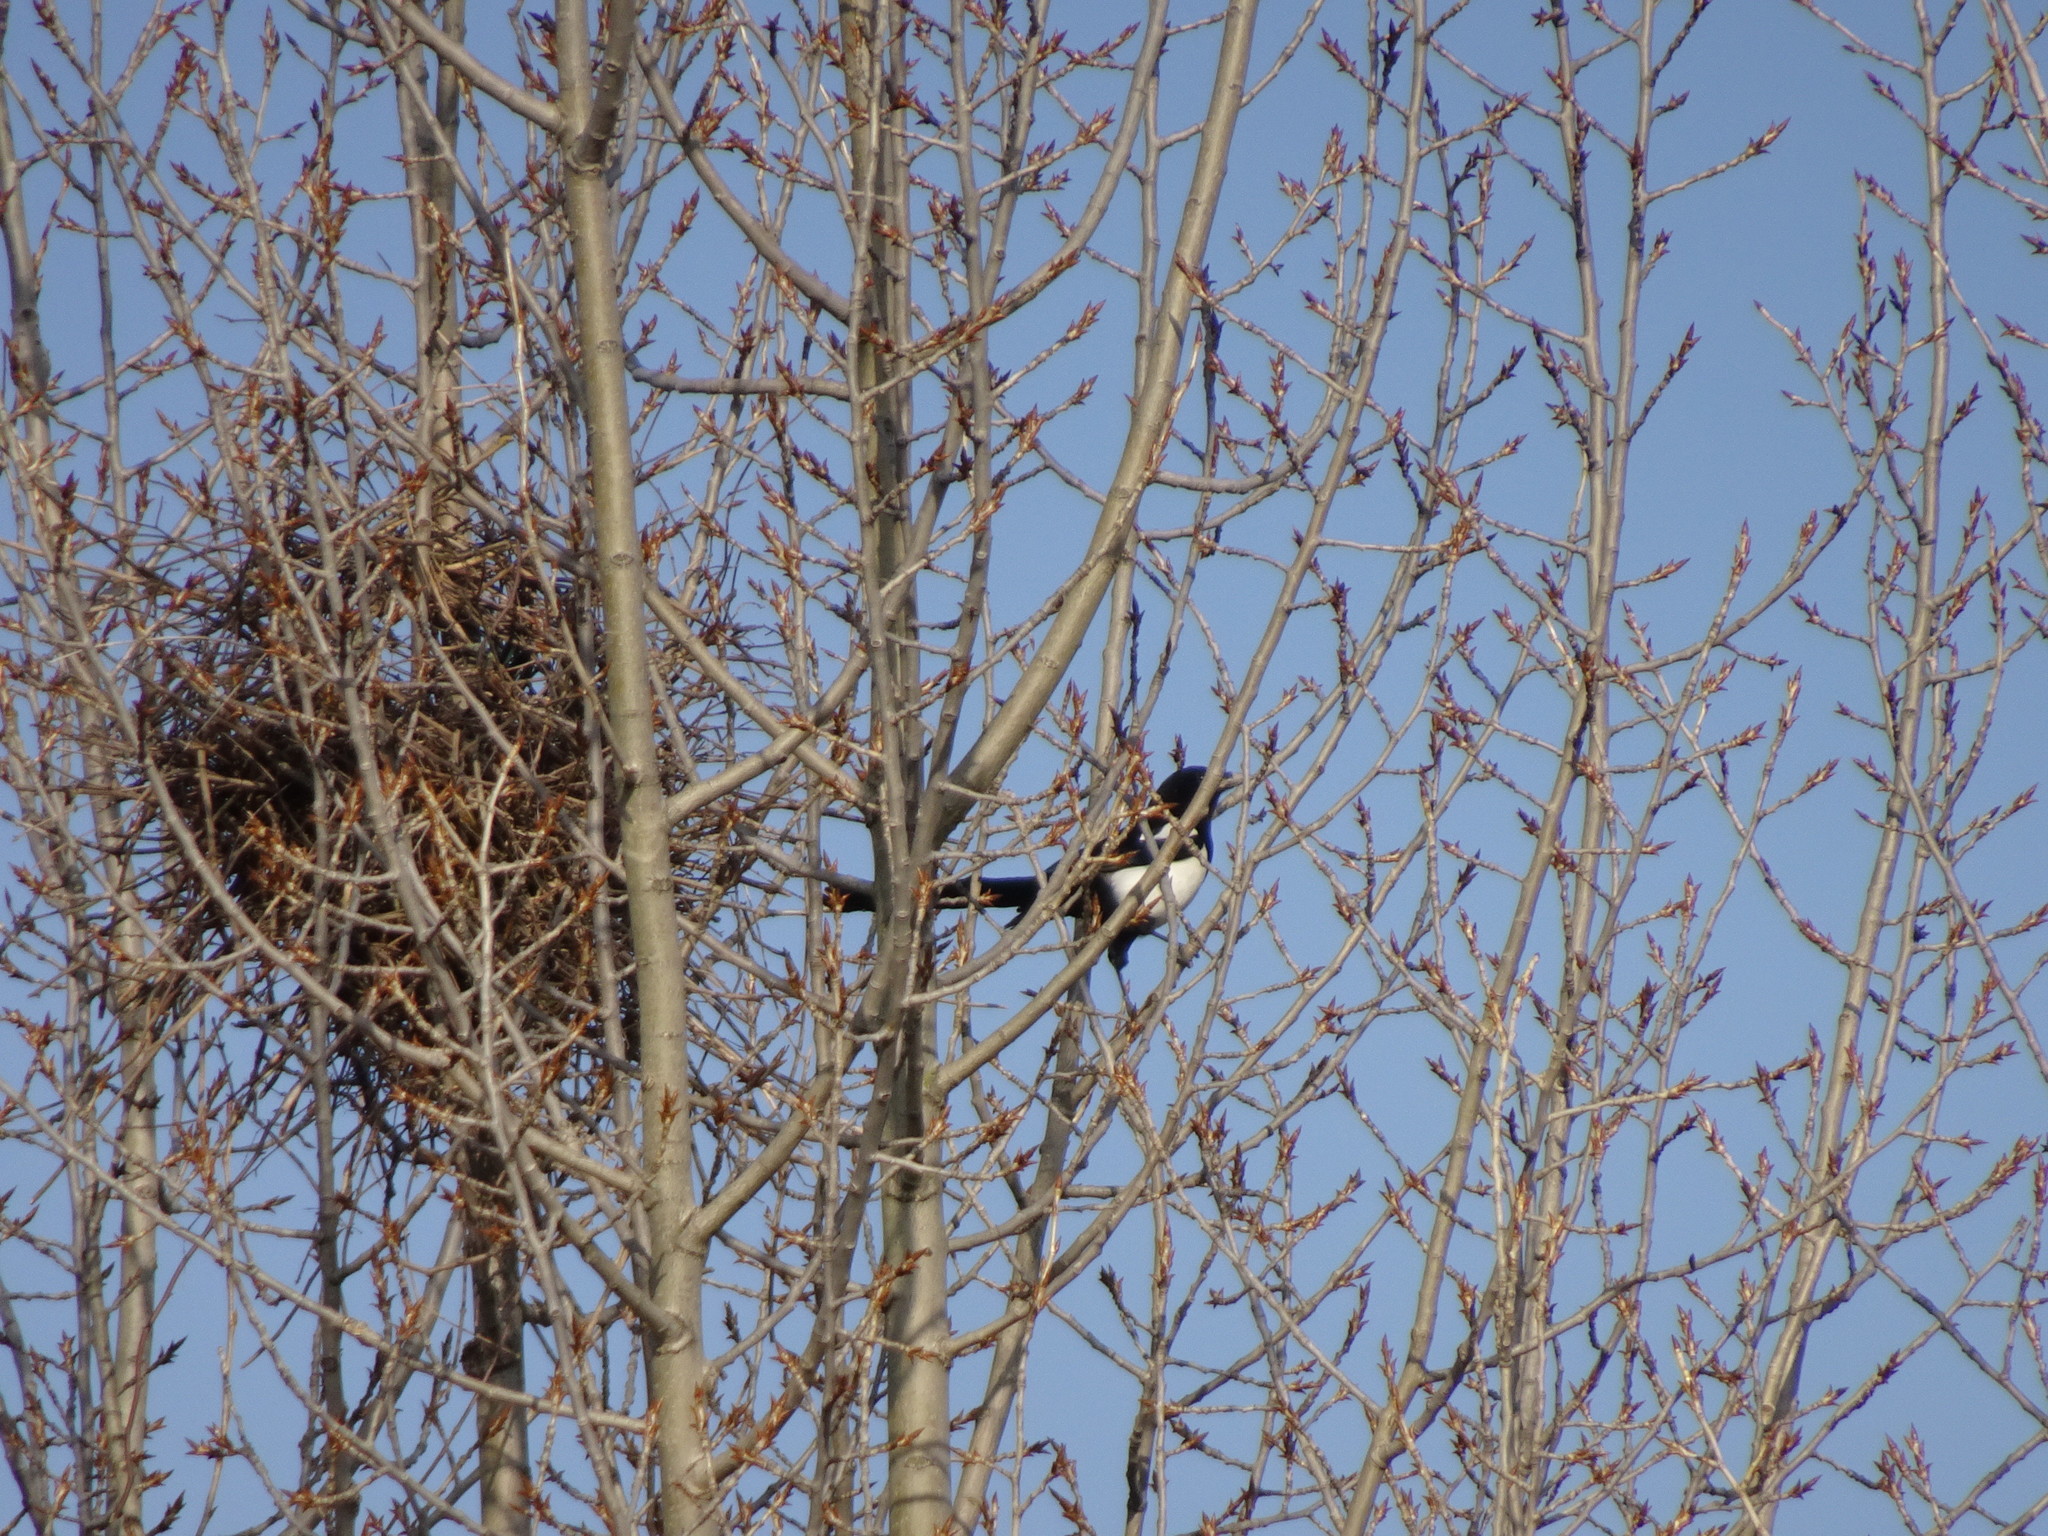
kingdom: Animalia
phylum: Chordata
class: Aves
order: Passeriformes
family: Corvidae
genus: Pica
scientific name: Pica pica
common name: Eurasian magpie
